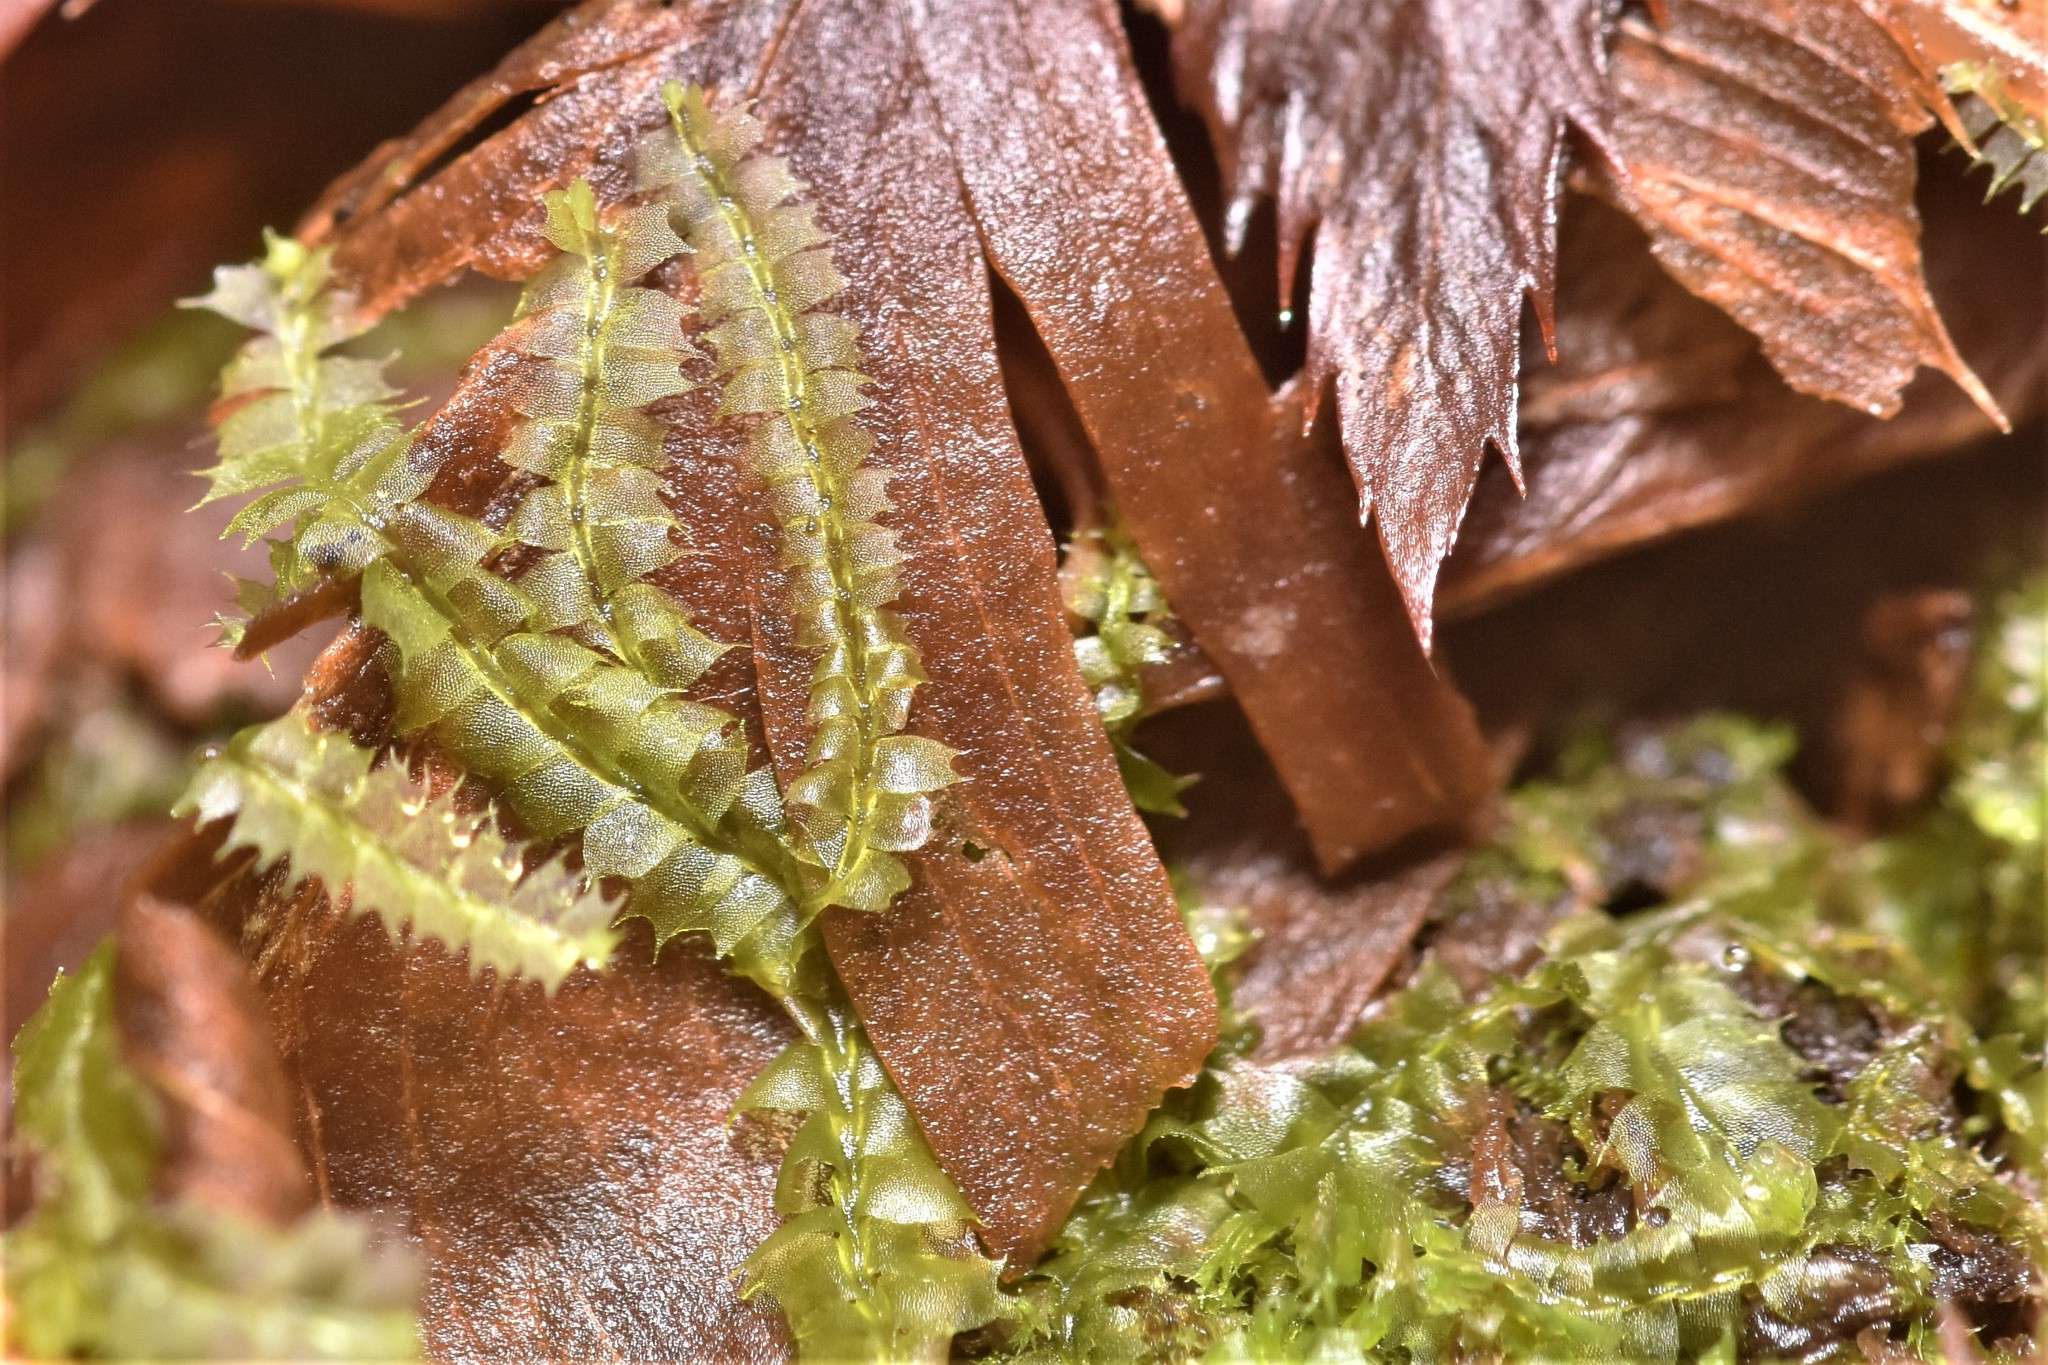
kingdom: Plantae
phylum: Marchantiophyta
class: Jungermanniopsida
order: Jungermanniales
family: Lophocoleaceae
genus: Lophocolea
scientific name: Lophocolea bidentata
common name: Bifid crestwort
